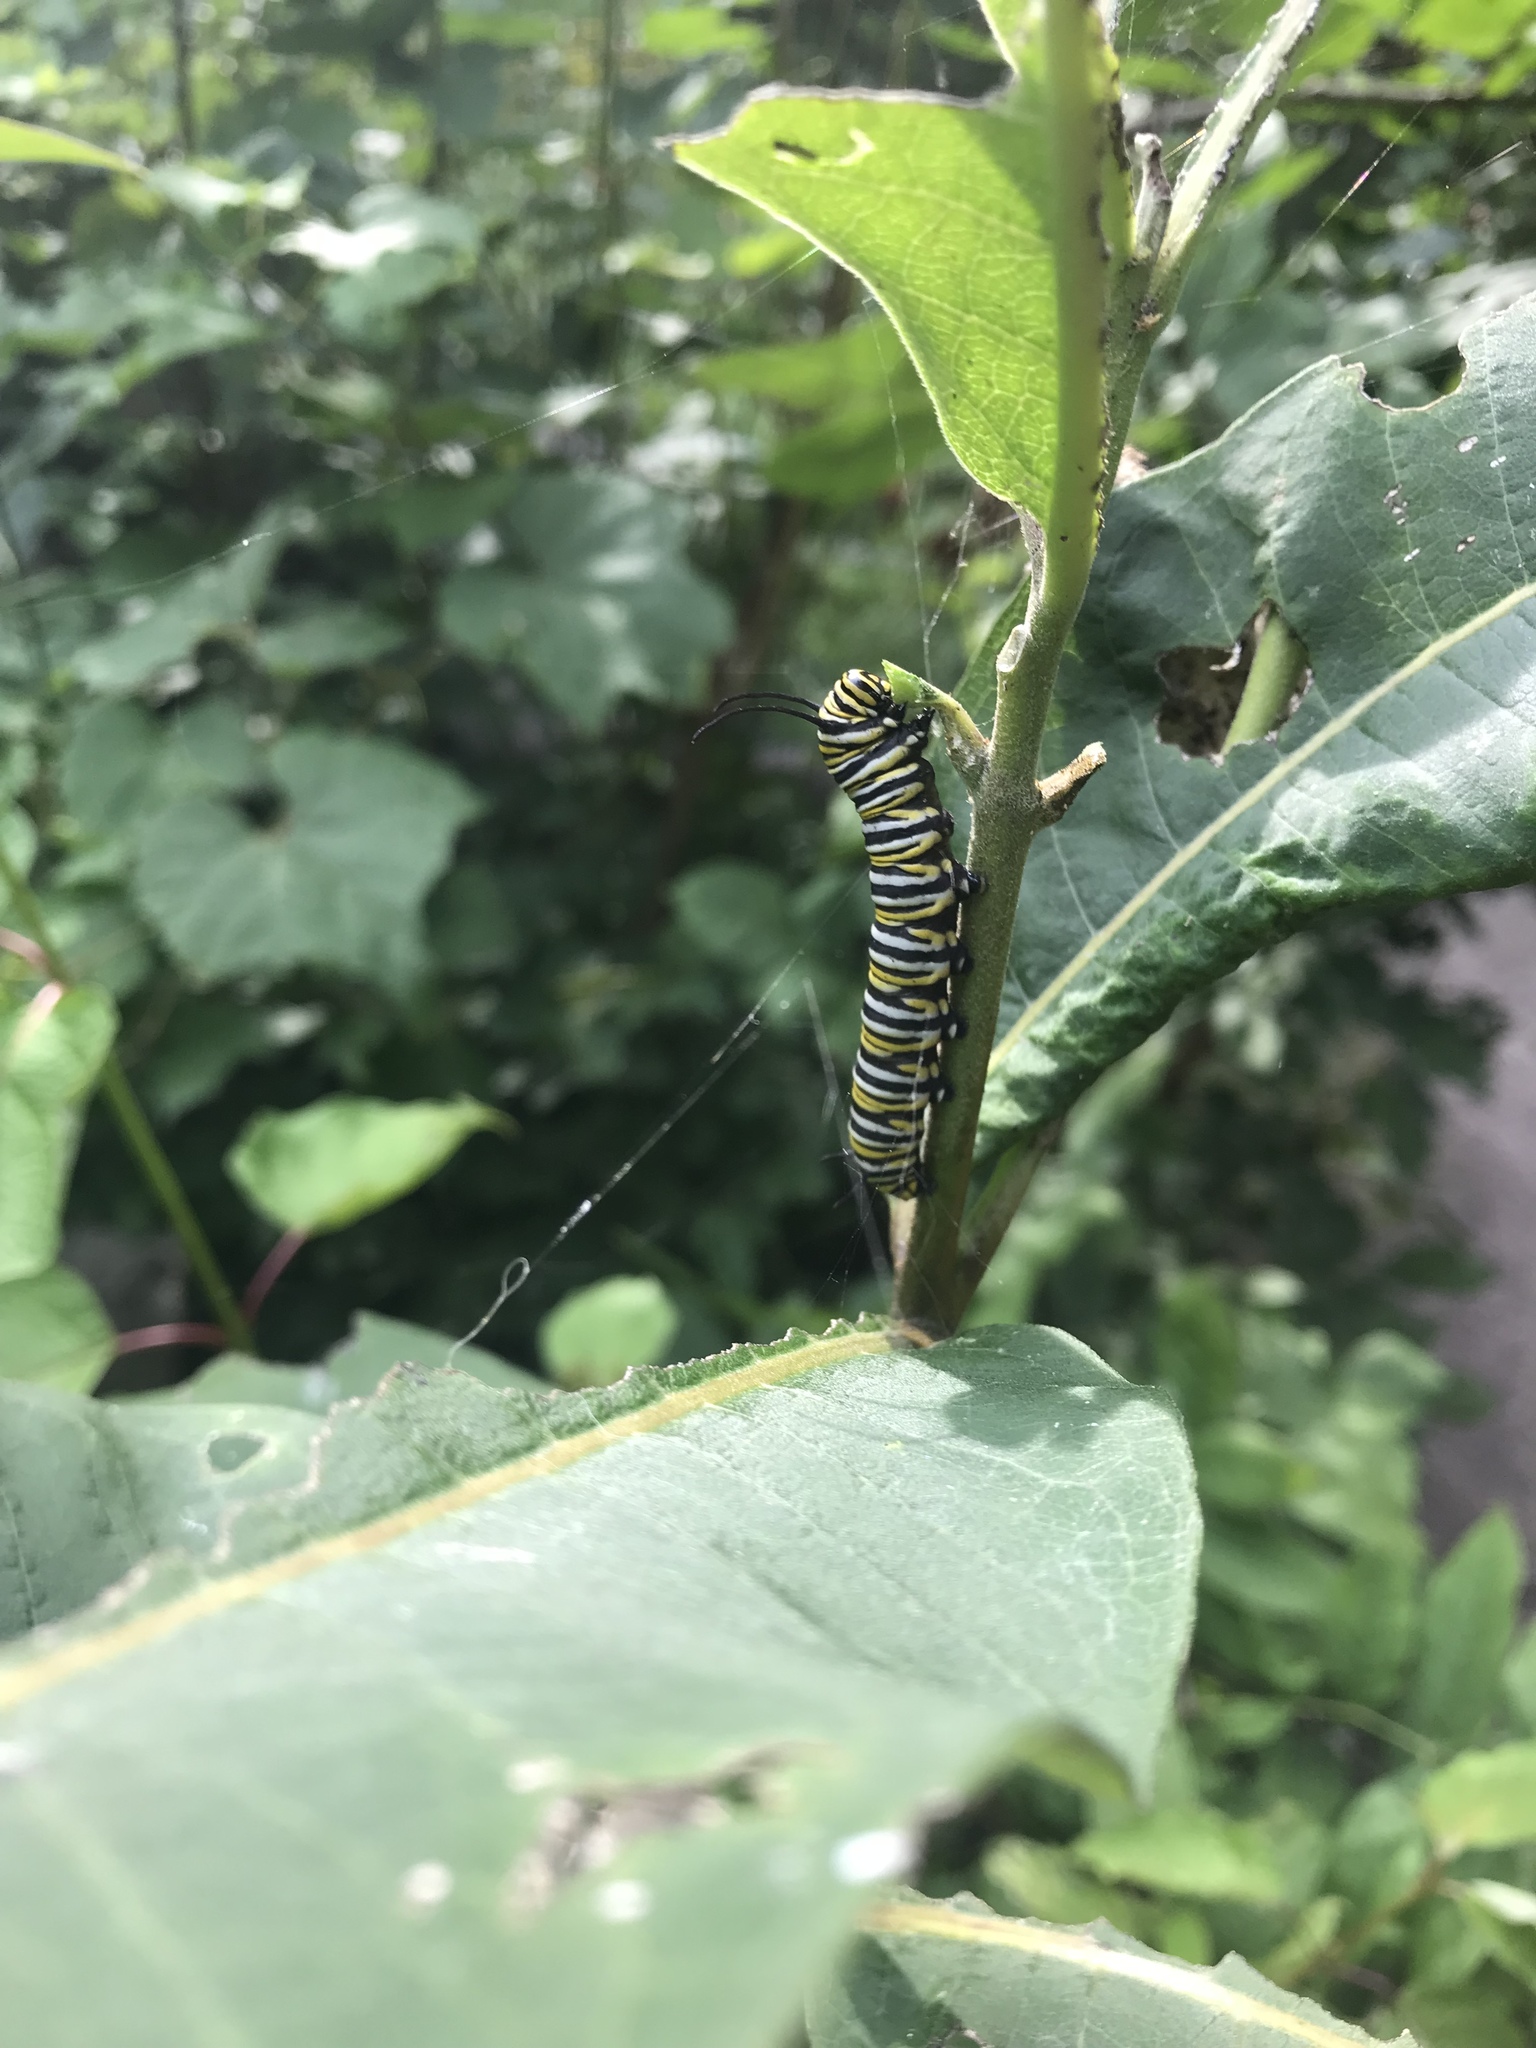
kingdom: Animalia
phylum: Arthropoda
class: Insecta
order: Lepidoptera
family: Nymphalidae
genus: Danaus
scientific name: Danaus plexippus
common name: Monarch
